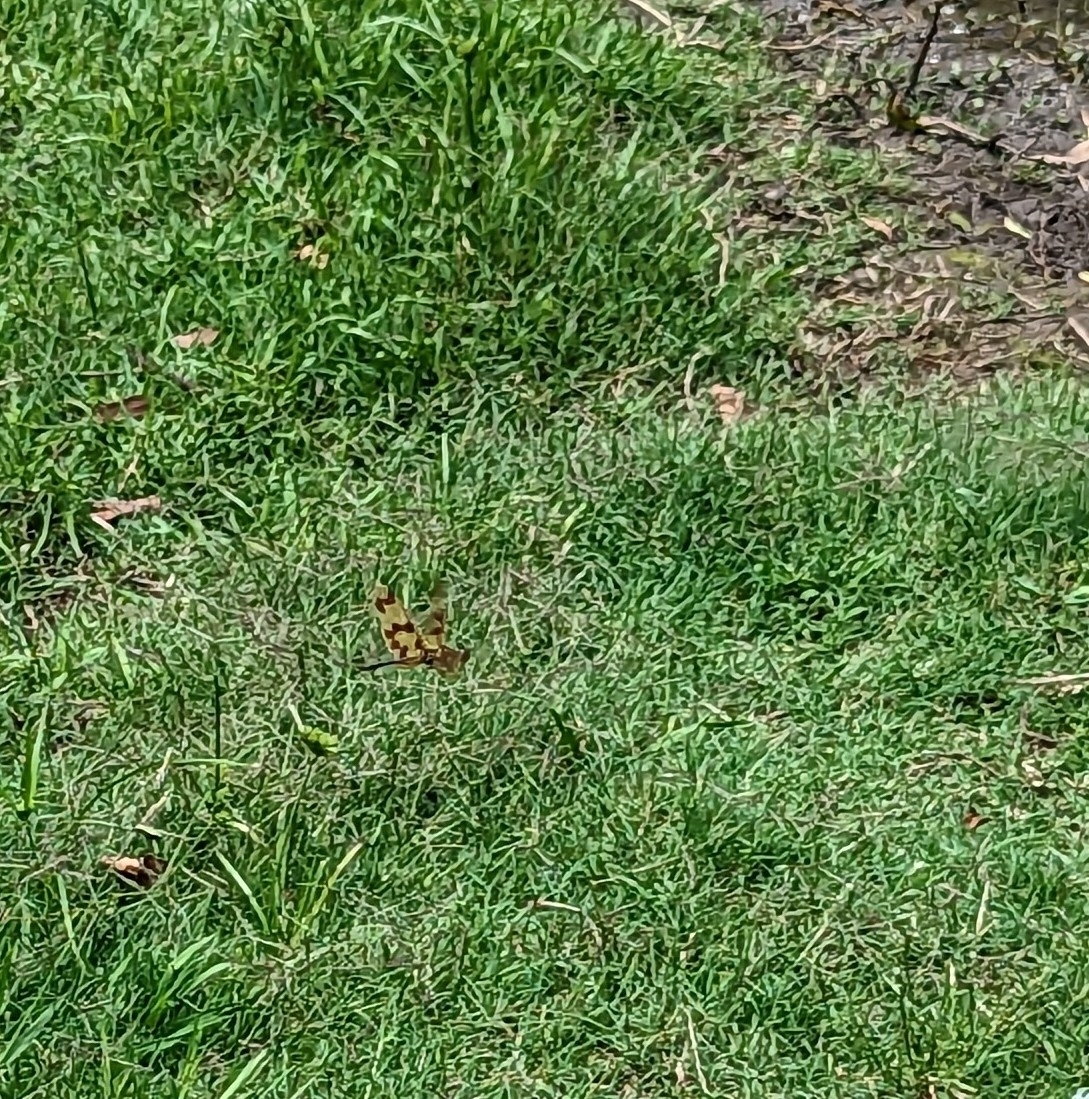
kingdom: Animalia
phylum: Arthropoda
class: Insecta
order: Odonata
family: Libellulidae
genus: Rhyothemis
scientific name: Rhyothemis graphiptera
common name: Graphic flutterer
